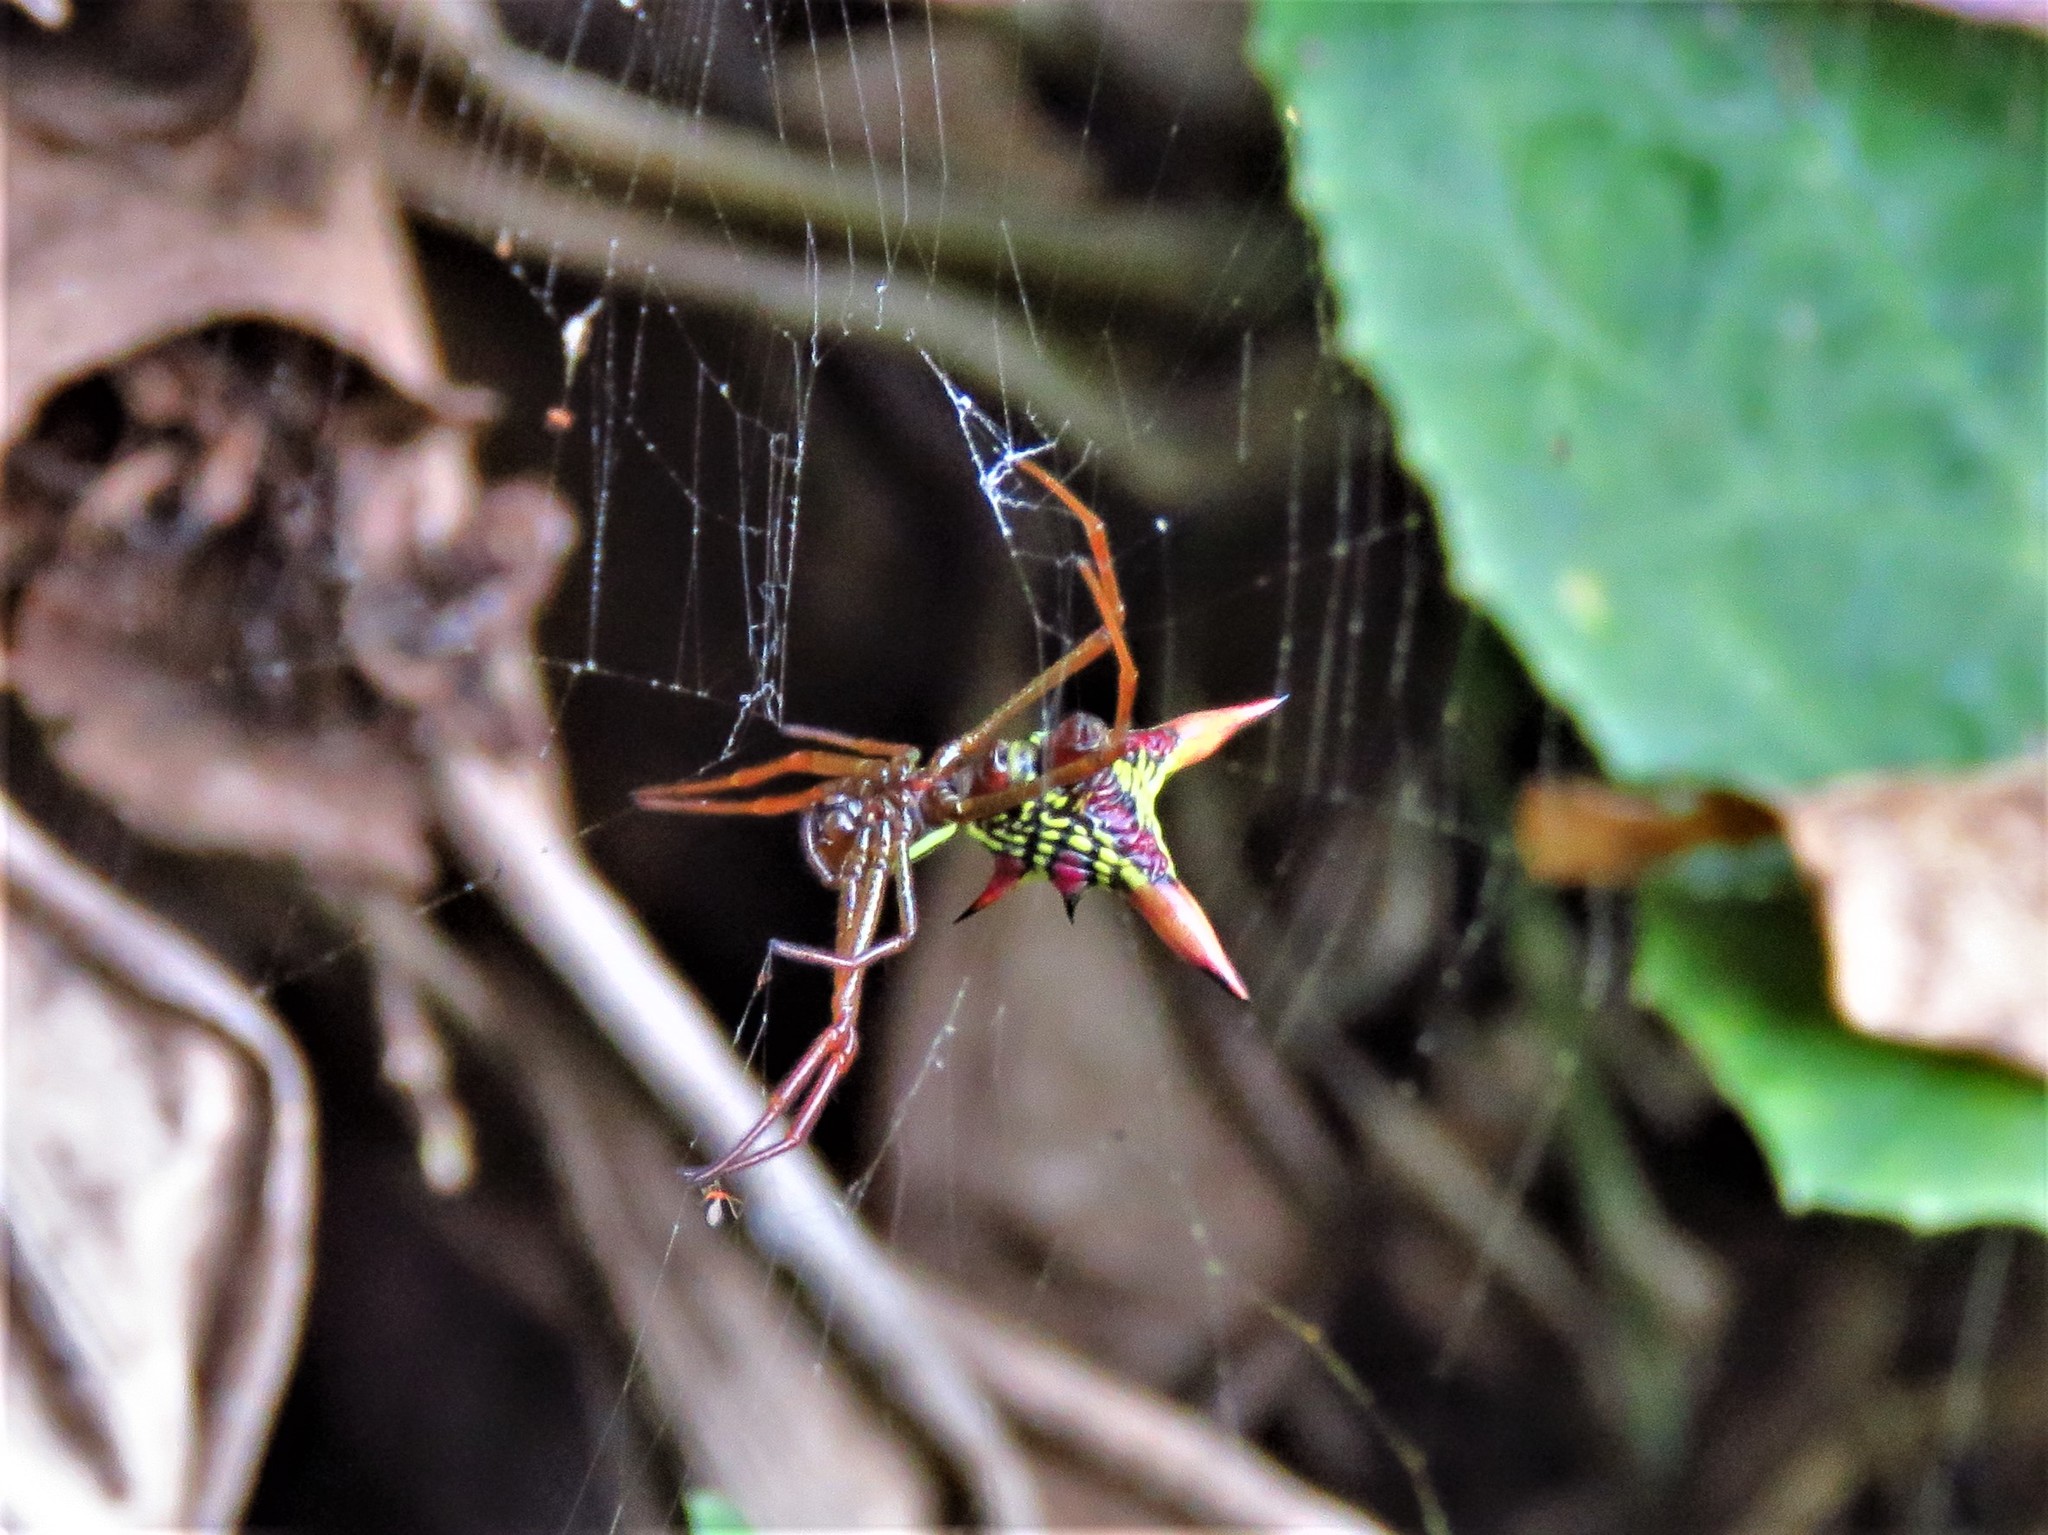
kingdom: Animalia
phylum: Arthropoda
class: Arachnida
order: Araneae
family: Araneidae
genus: Micrathena
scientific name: Micrathena sagittata
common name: Orb weavers
